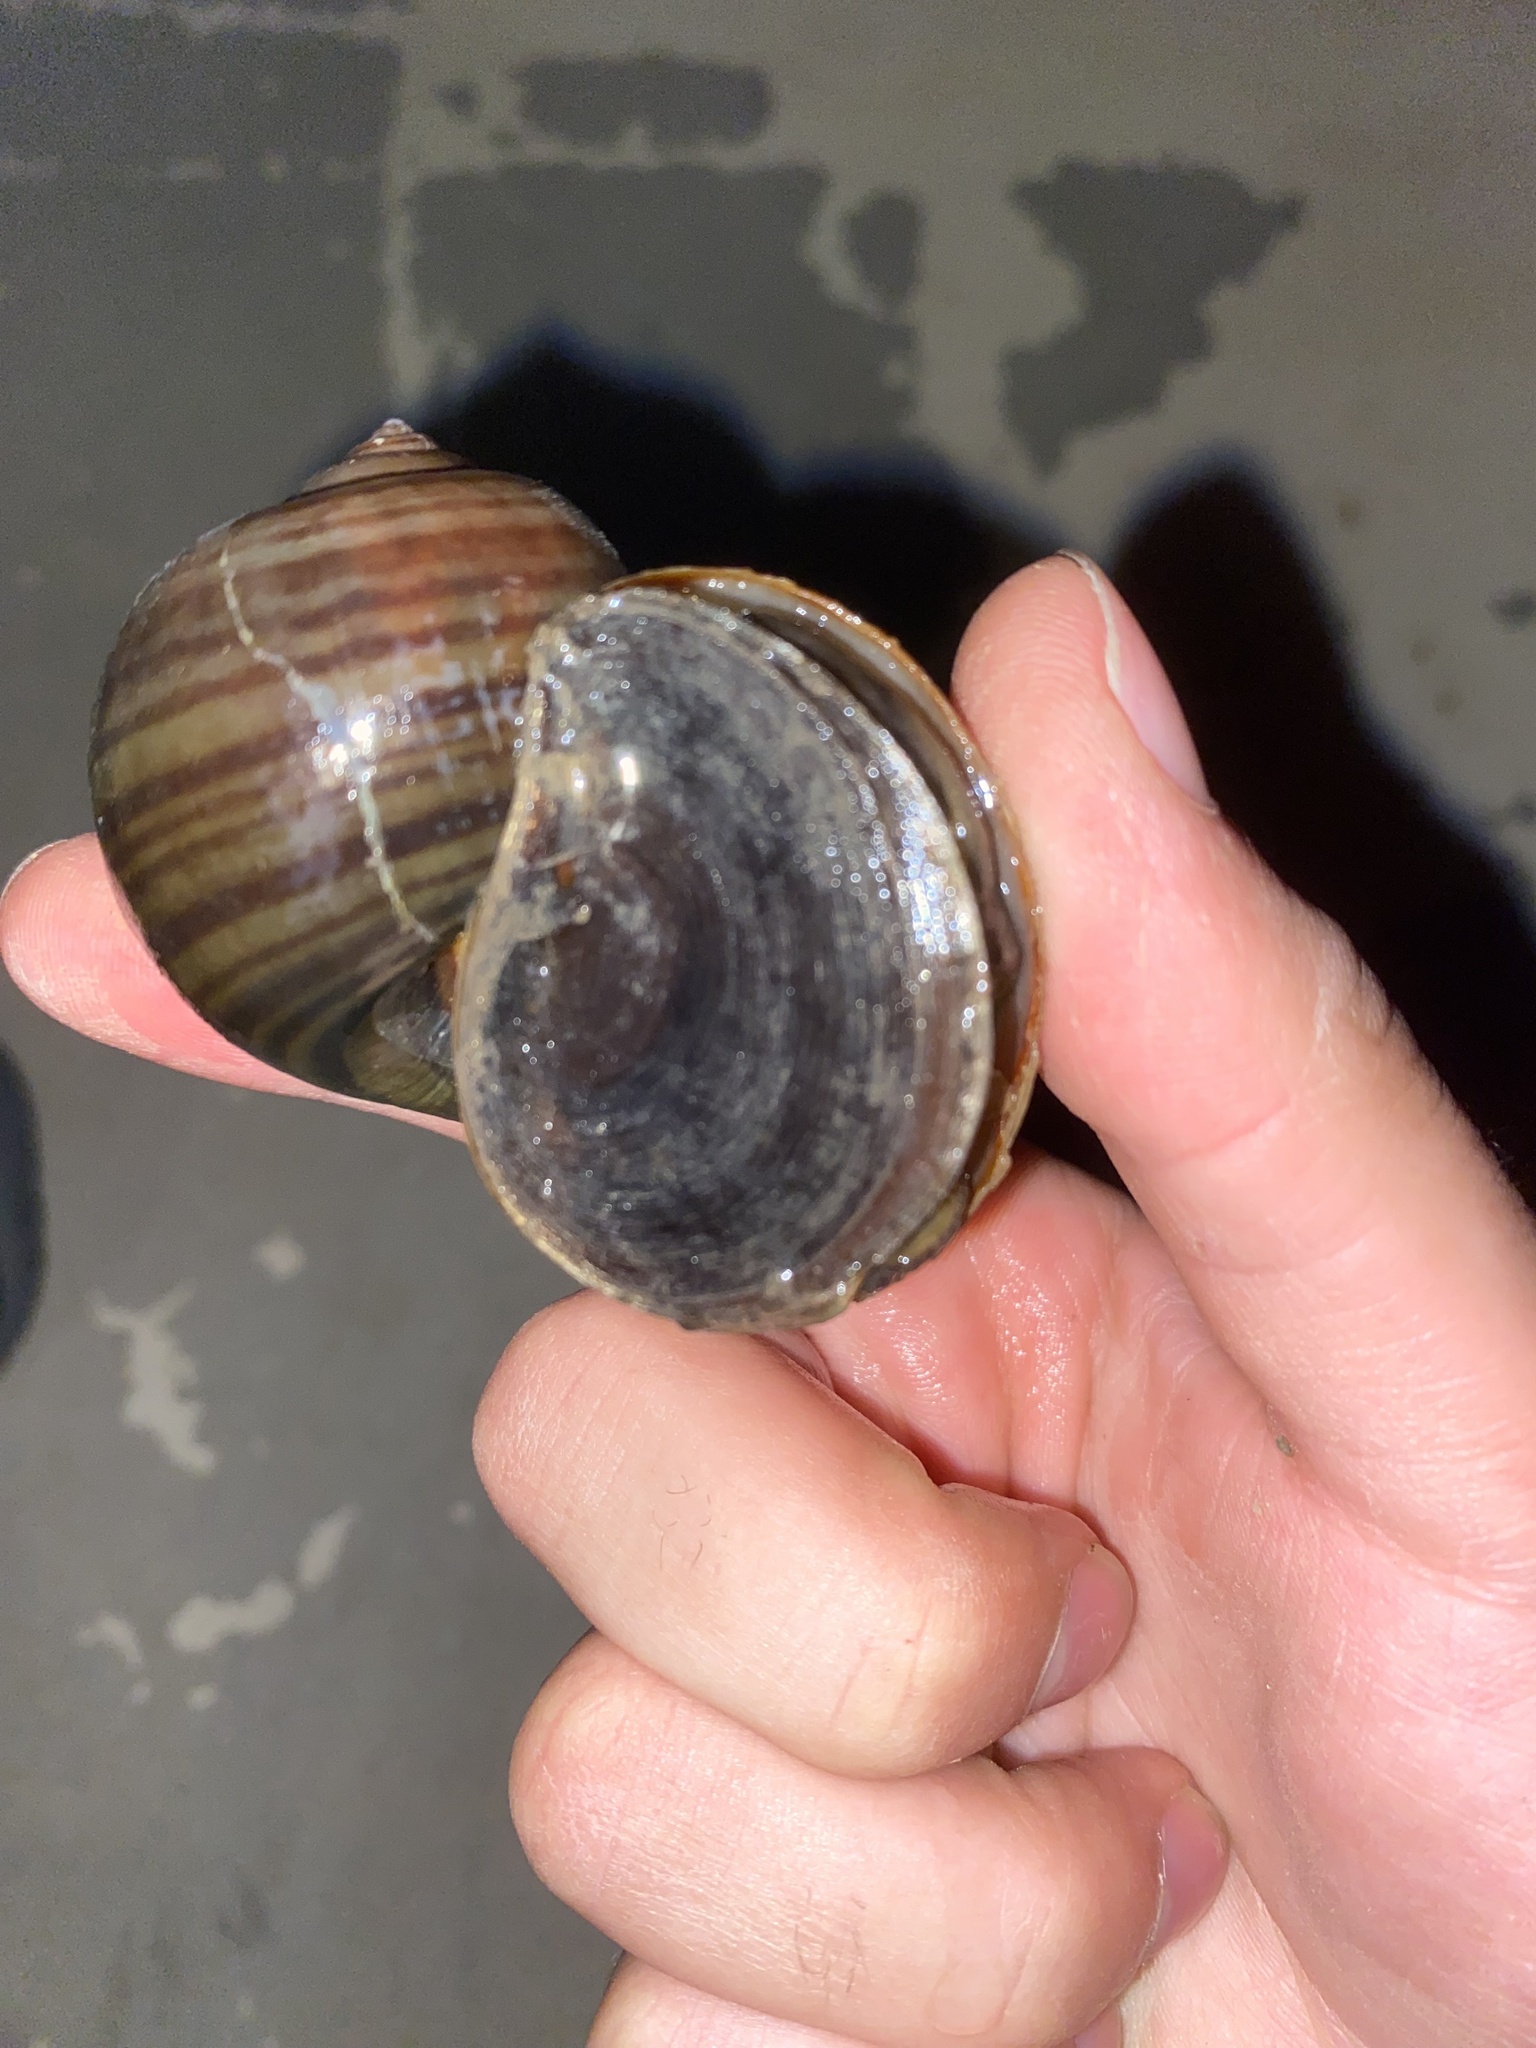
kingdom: Animalia
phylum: Mollusca
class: Gastropoda
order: Architaenioglossa
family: Ampullariidae
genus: Pomacea
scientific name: Pomacea maculata
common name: Giant applesnail
